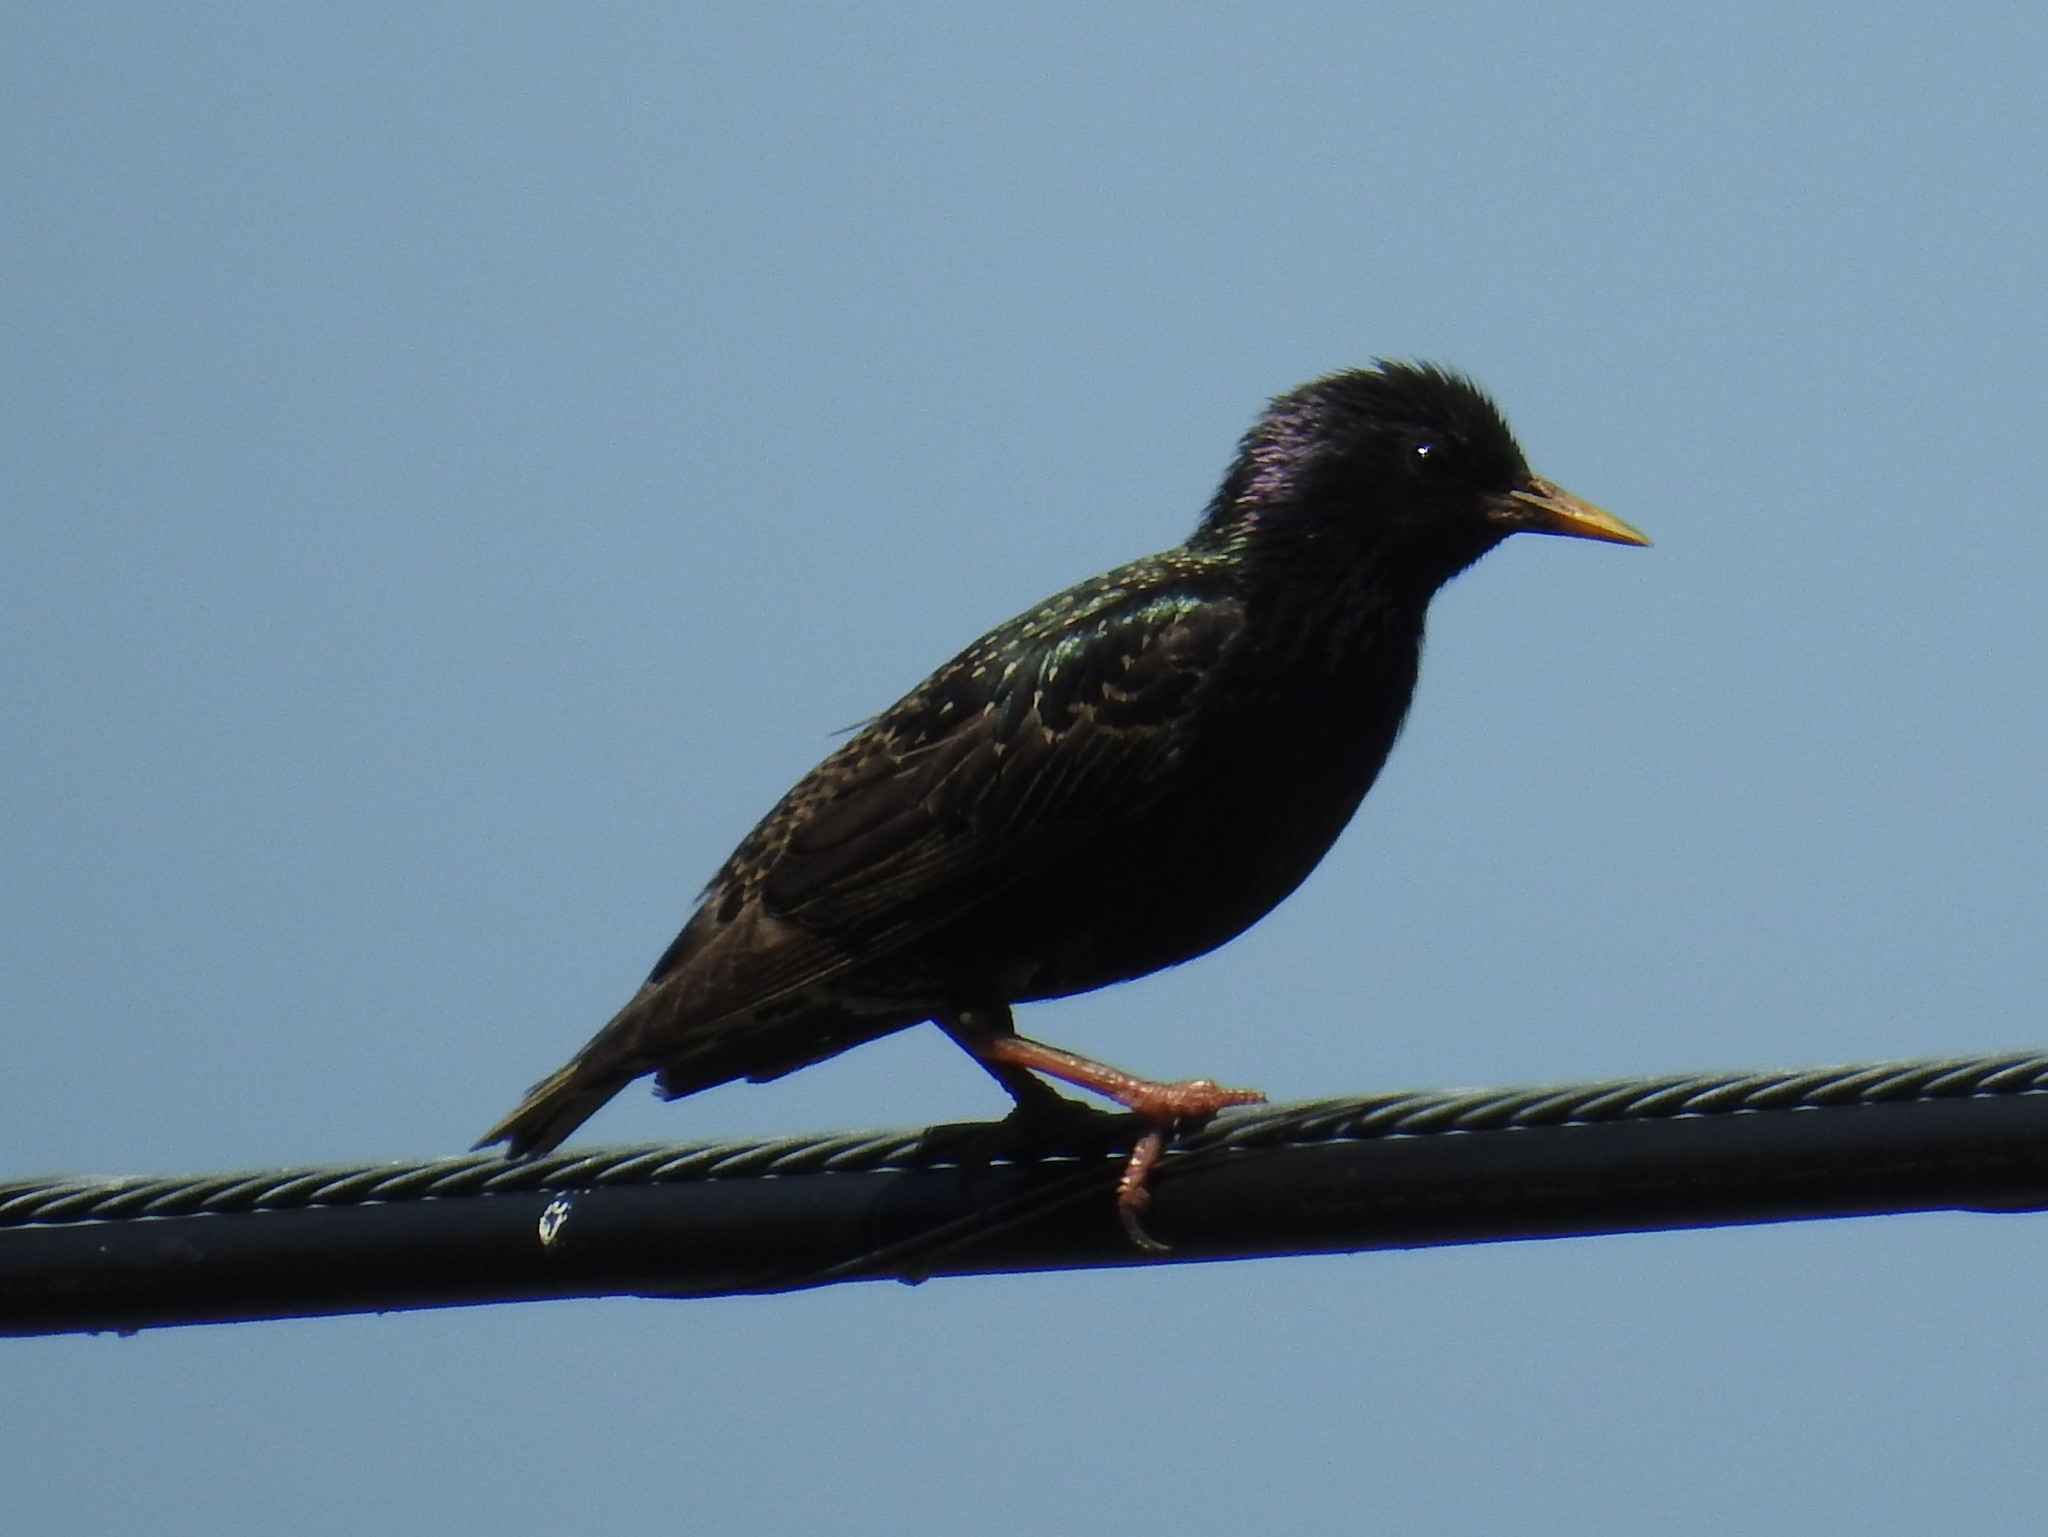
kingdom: Animalia
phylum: Chordata
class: Aves
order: Passeriformes
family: Sturnidae
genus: Sturnus
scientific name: Sturnus vulgaris
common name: Common starling
